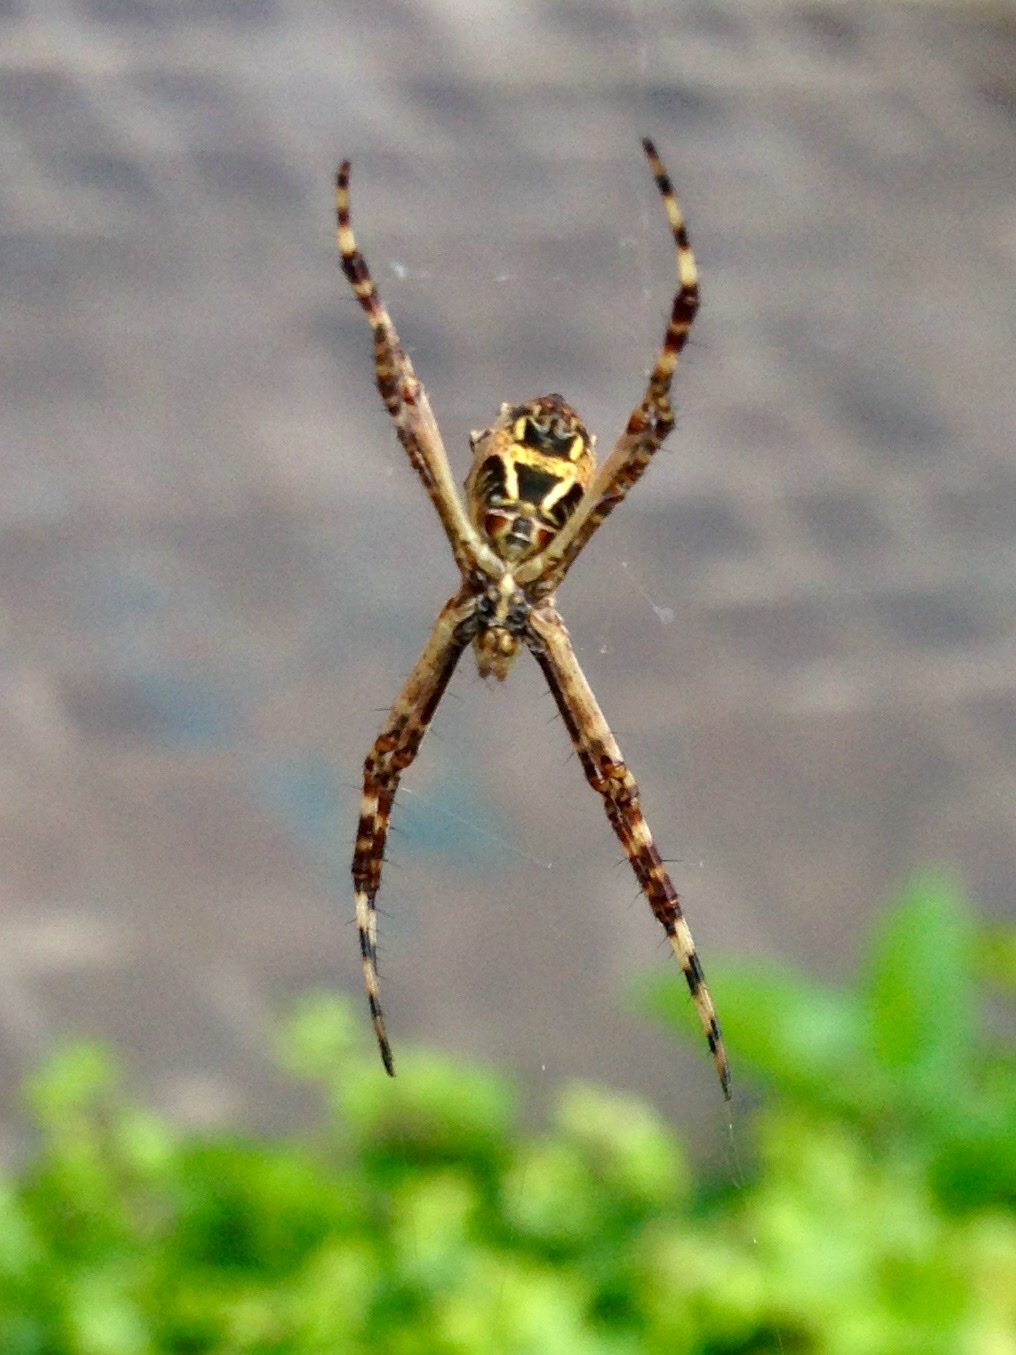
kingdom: Animalia
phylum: Arthropoda
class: Arachnida
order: Araneae
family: Araneidae
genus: Argiope
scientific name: Argiope argentata
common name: Orb weavers
